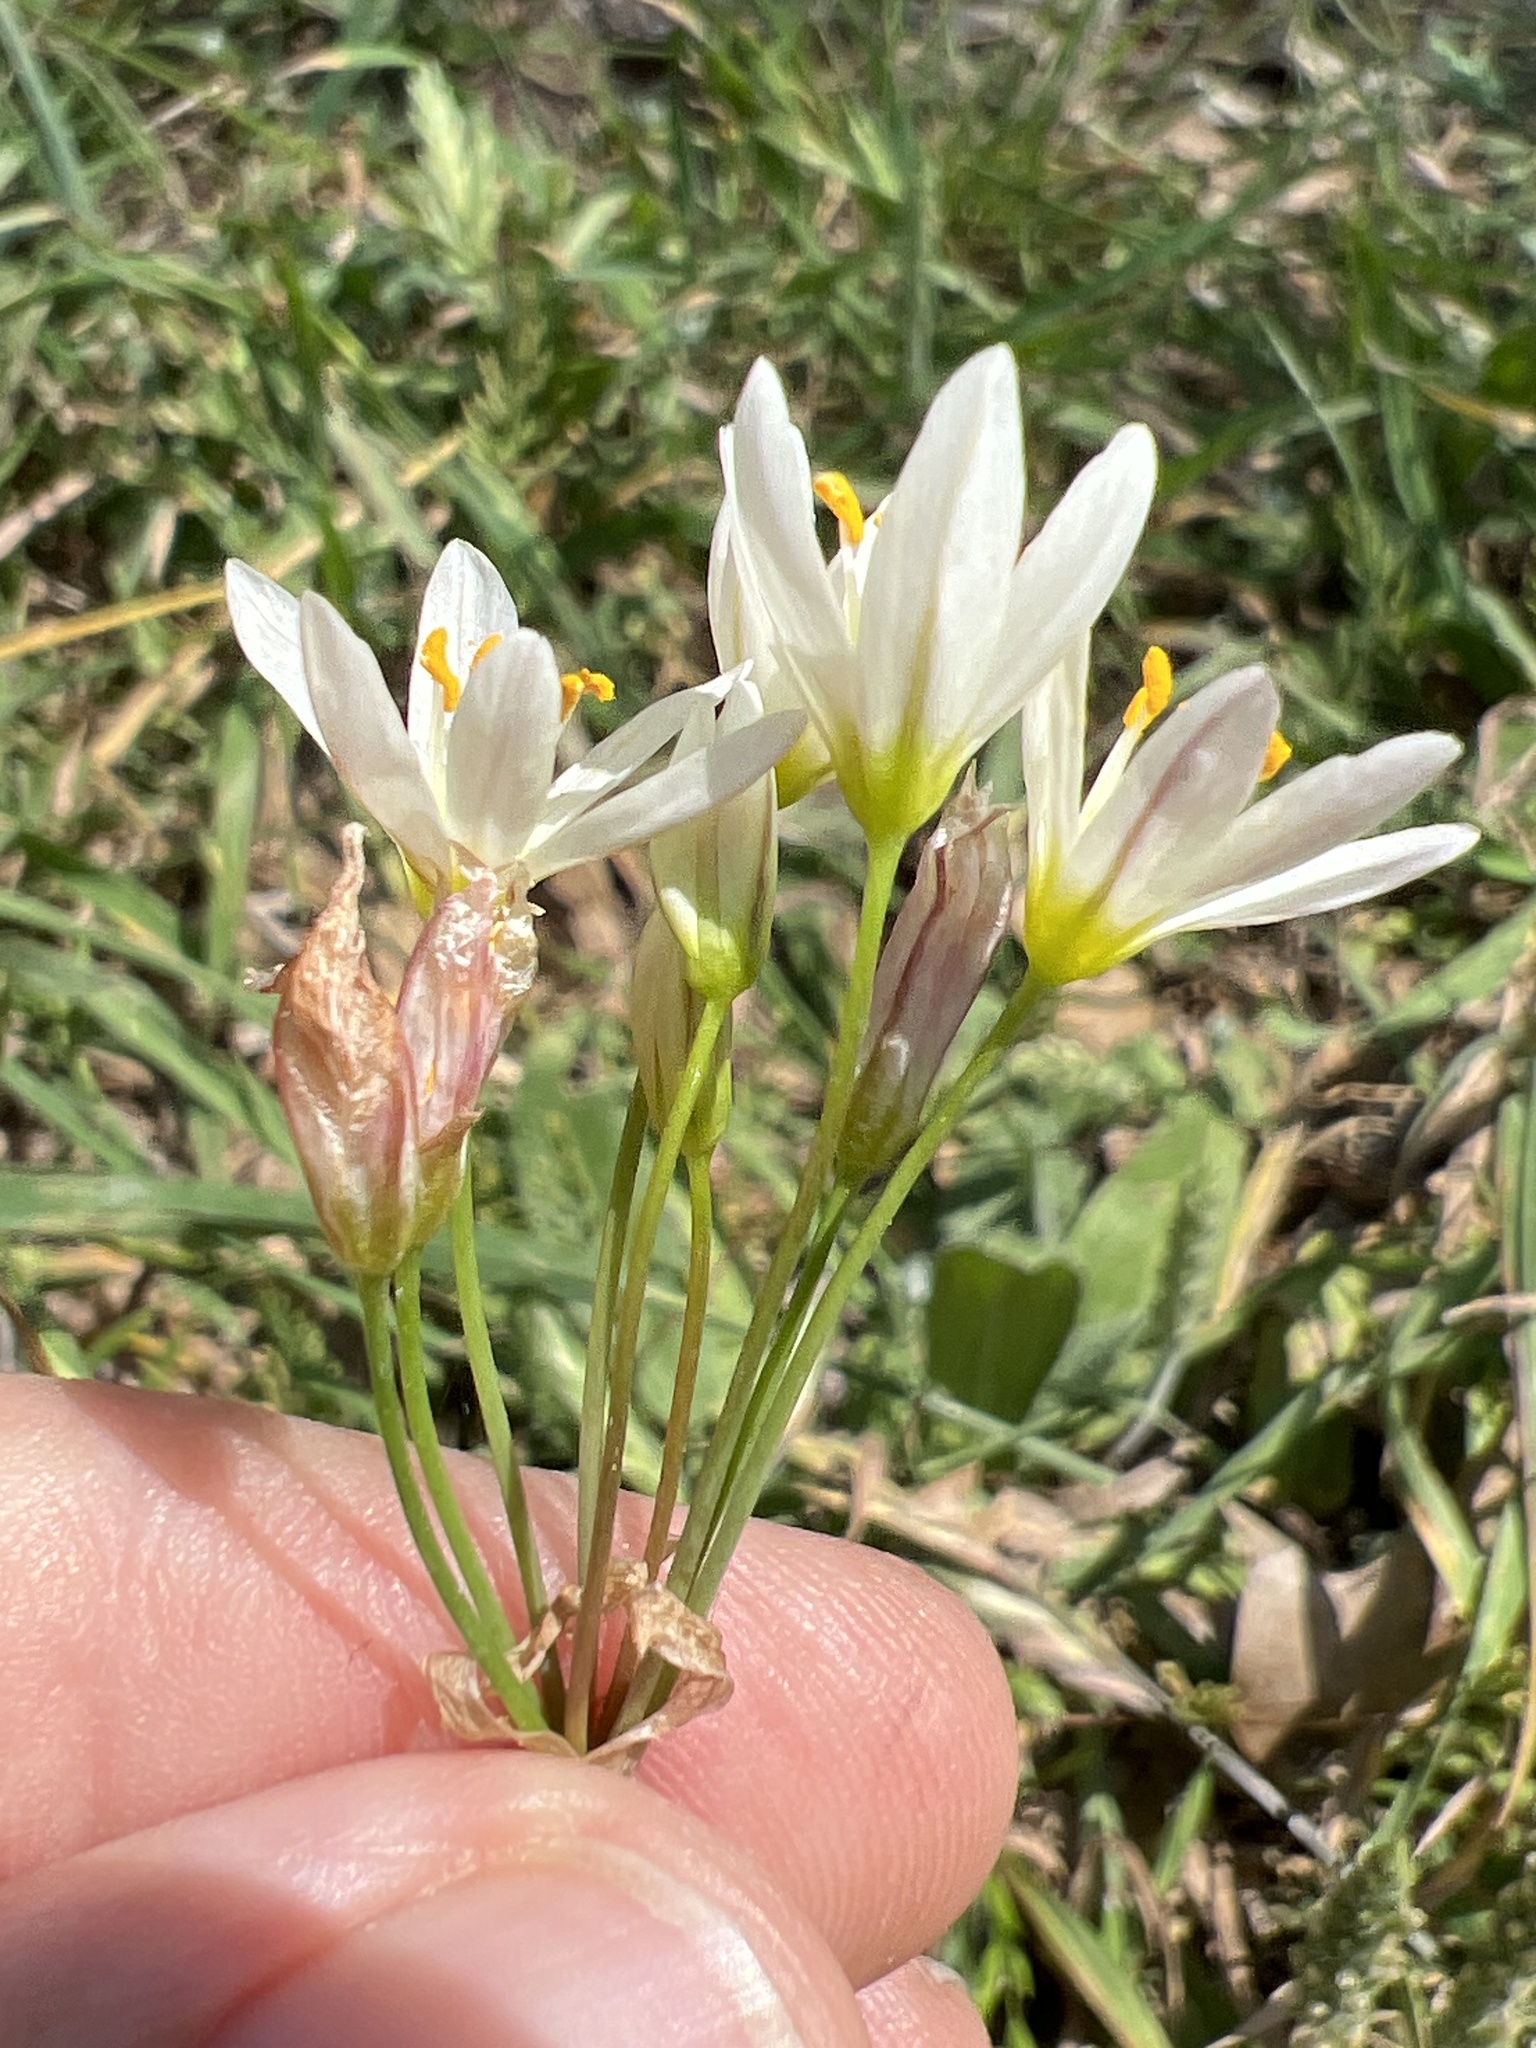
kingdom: Plantae
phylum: Tracheophyta
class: Liliopsida
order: Asparagales
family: Amaryllidaceae
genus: Nothoscordum
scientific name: Nothoscordum bivalve
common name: Crow-poison
